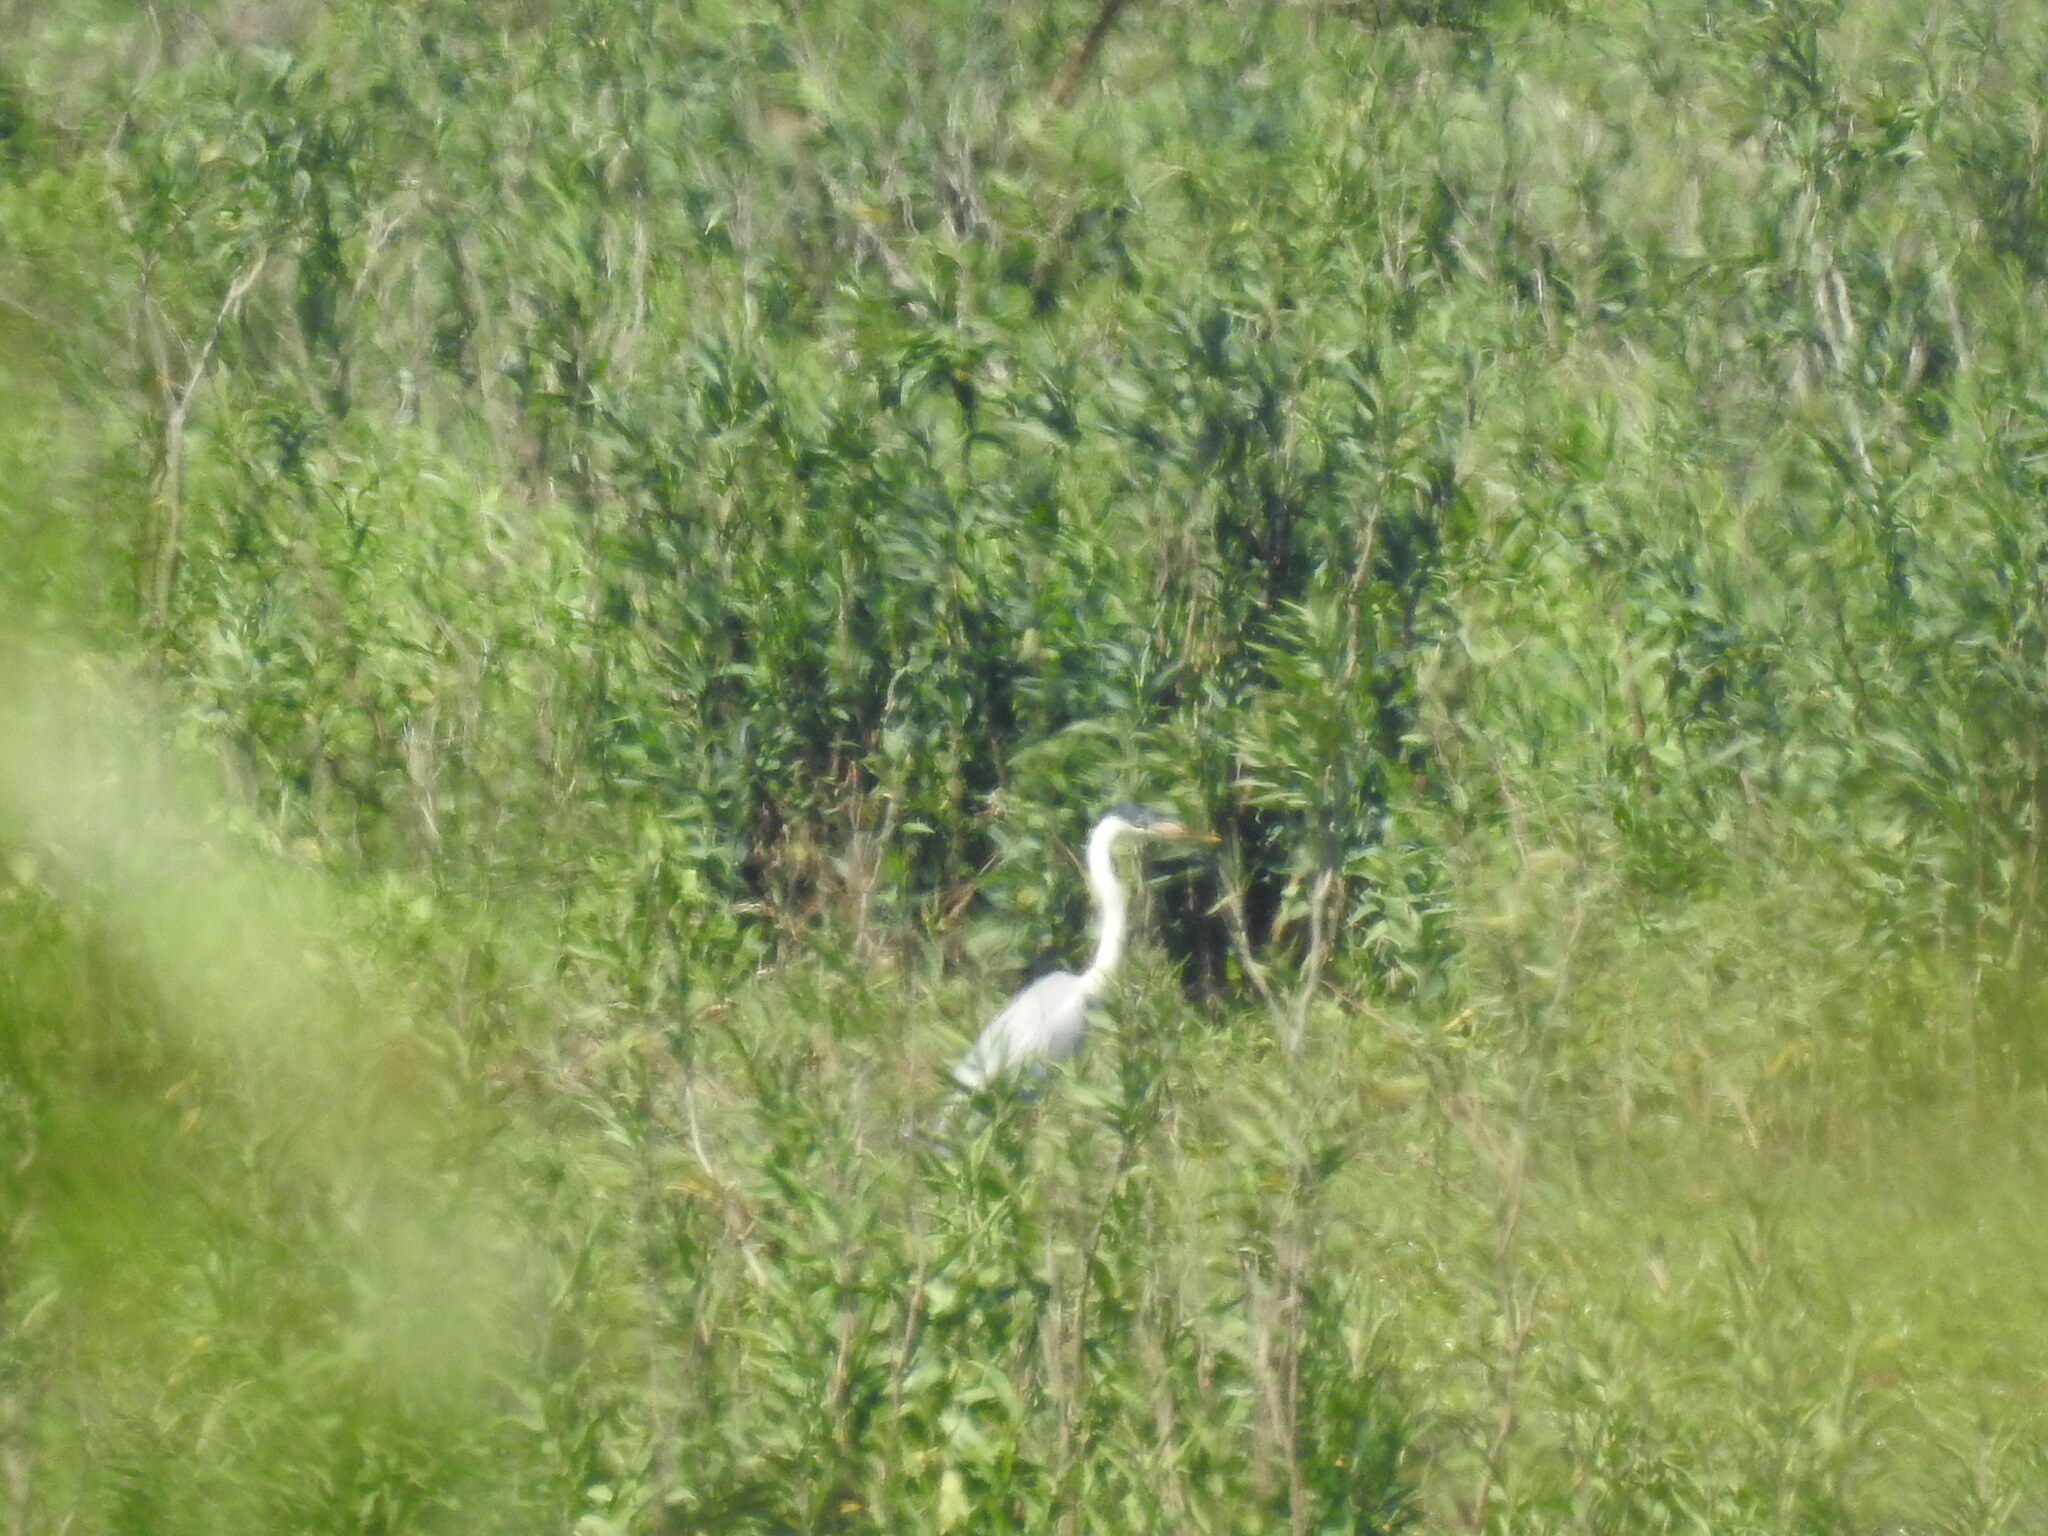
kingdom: Animalia
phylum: Chordata
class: Aves
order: Pelecaniformes
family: Ardeidae
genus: Ardea
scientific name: Ardea cocoi
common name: Cocoi heron
